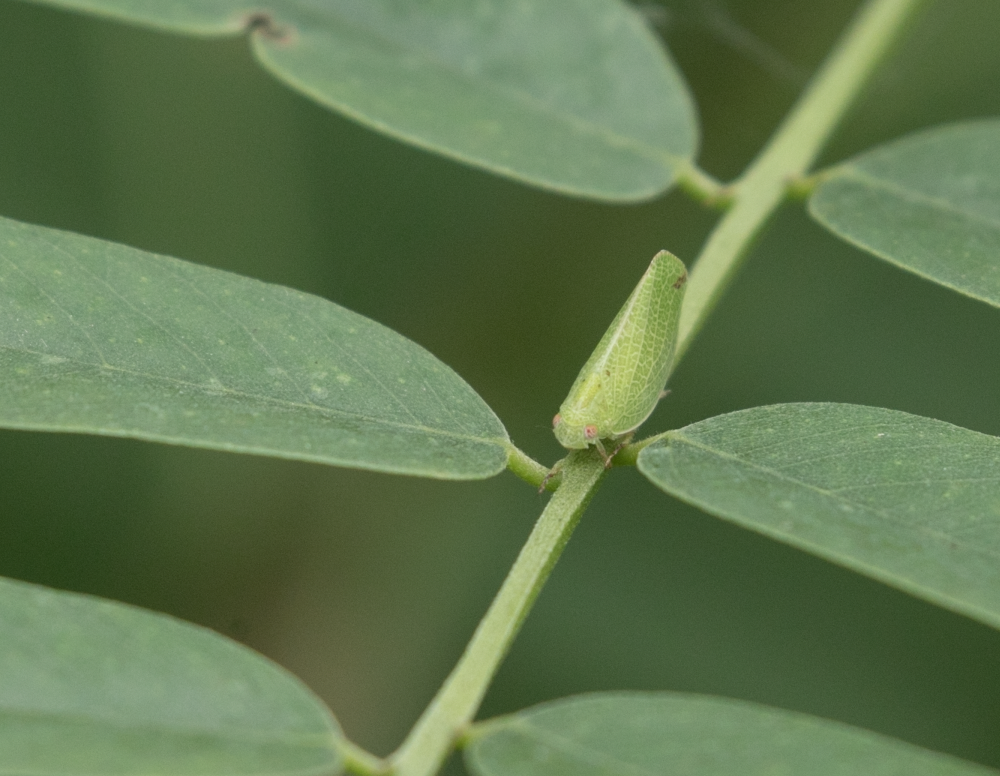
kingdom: Animalia
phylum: Arthropoda
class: Insecta
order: Hemiptera
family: Acanaloniidae
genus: Acanalonia
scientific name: Acanalonia conica
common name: Green cone-headed planthopper
